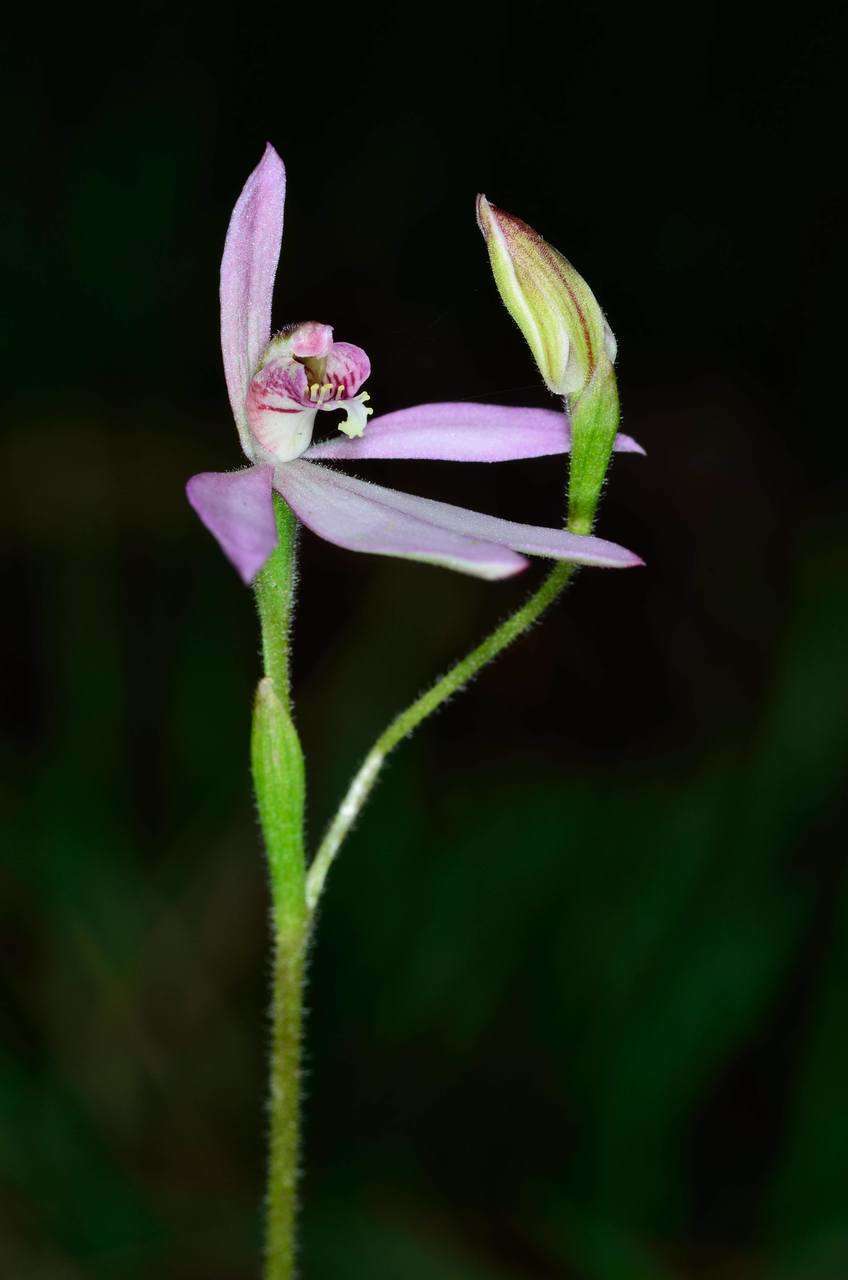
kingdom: Plantae
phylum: Tracheophyta
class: Liliopsida
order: Asparagales
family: Orchidaceae
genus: Caladenia
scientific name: Caladenia carnea
